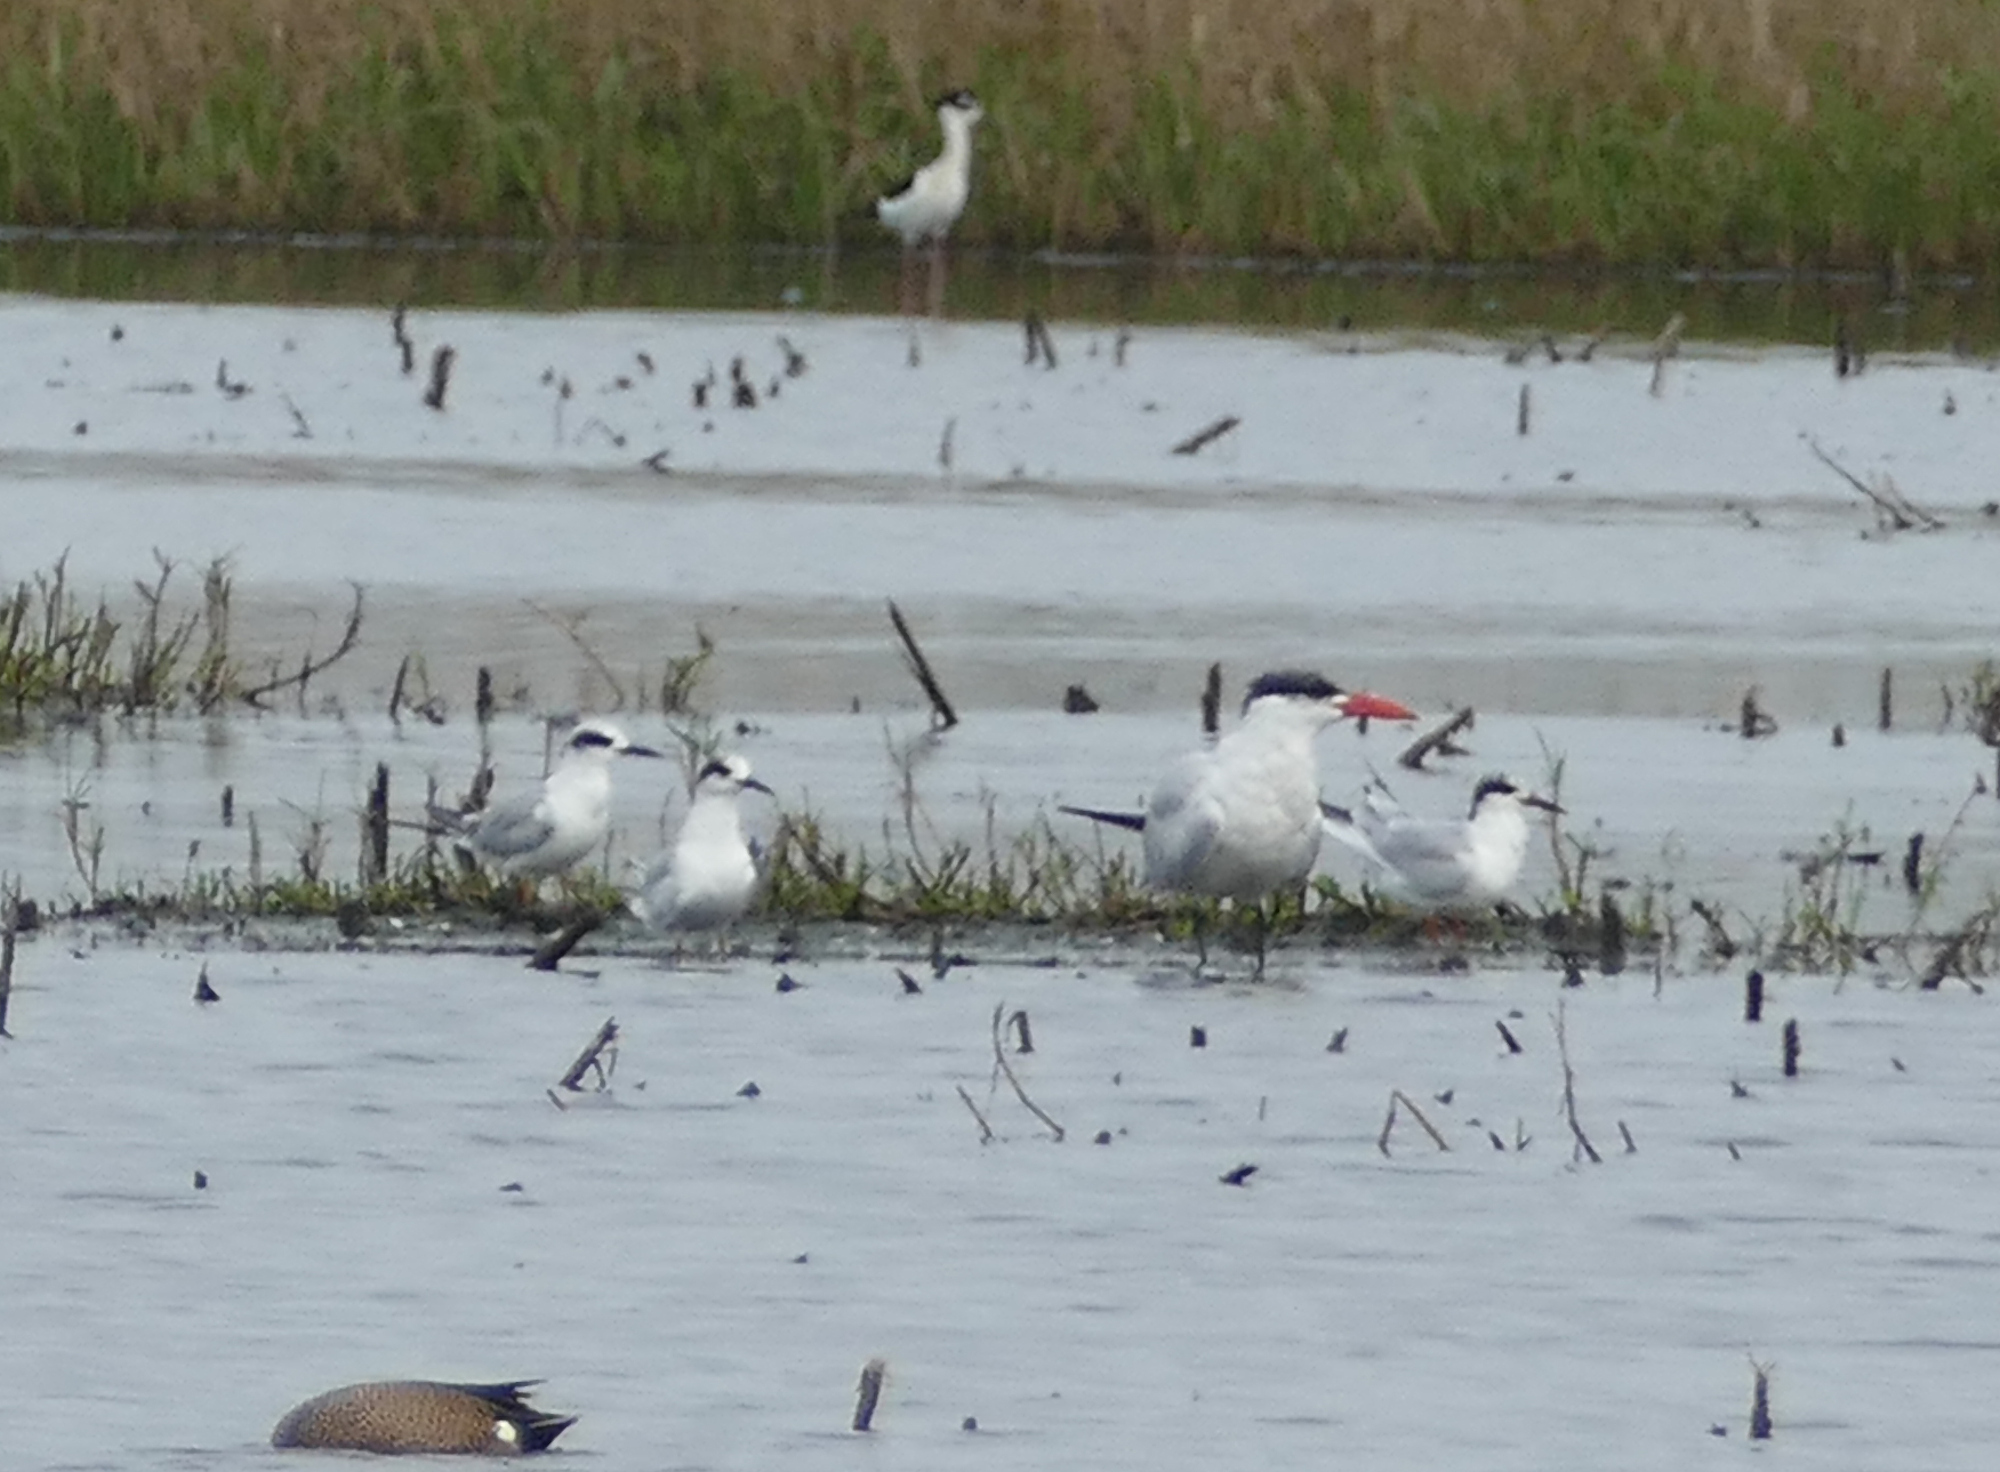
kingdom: Animalia
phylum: Chordata
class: Aves
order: Charadriiformes
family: Laridae
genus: Hydroprogne
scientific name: Hydroprogne caspia
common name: Caspian tern
